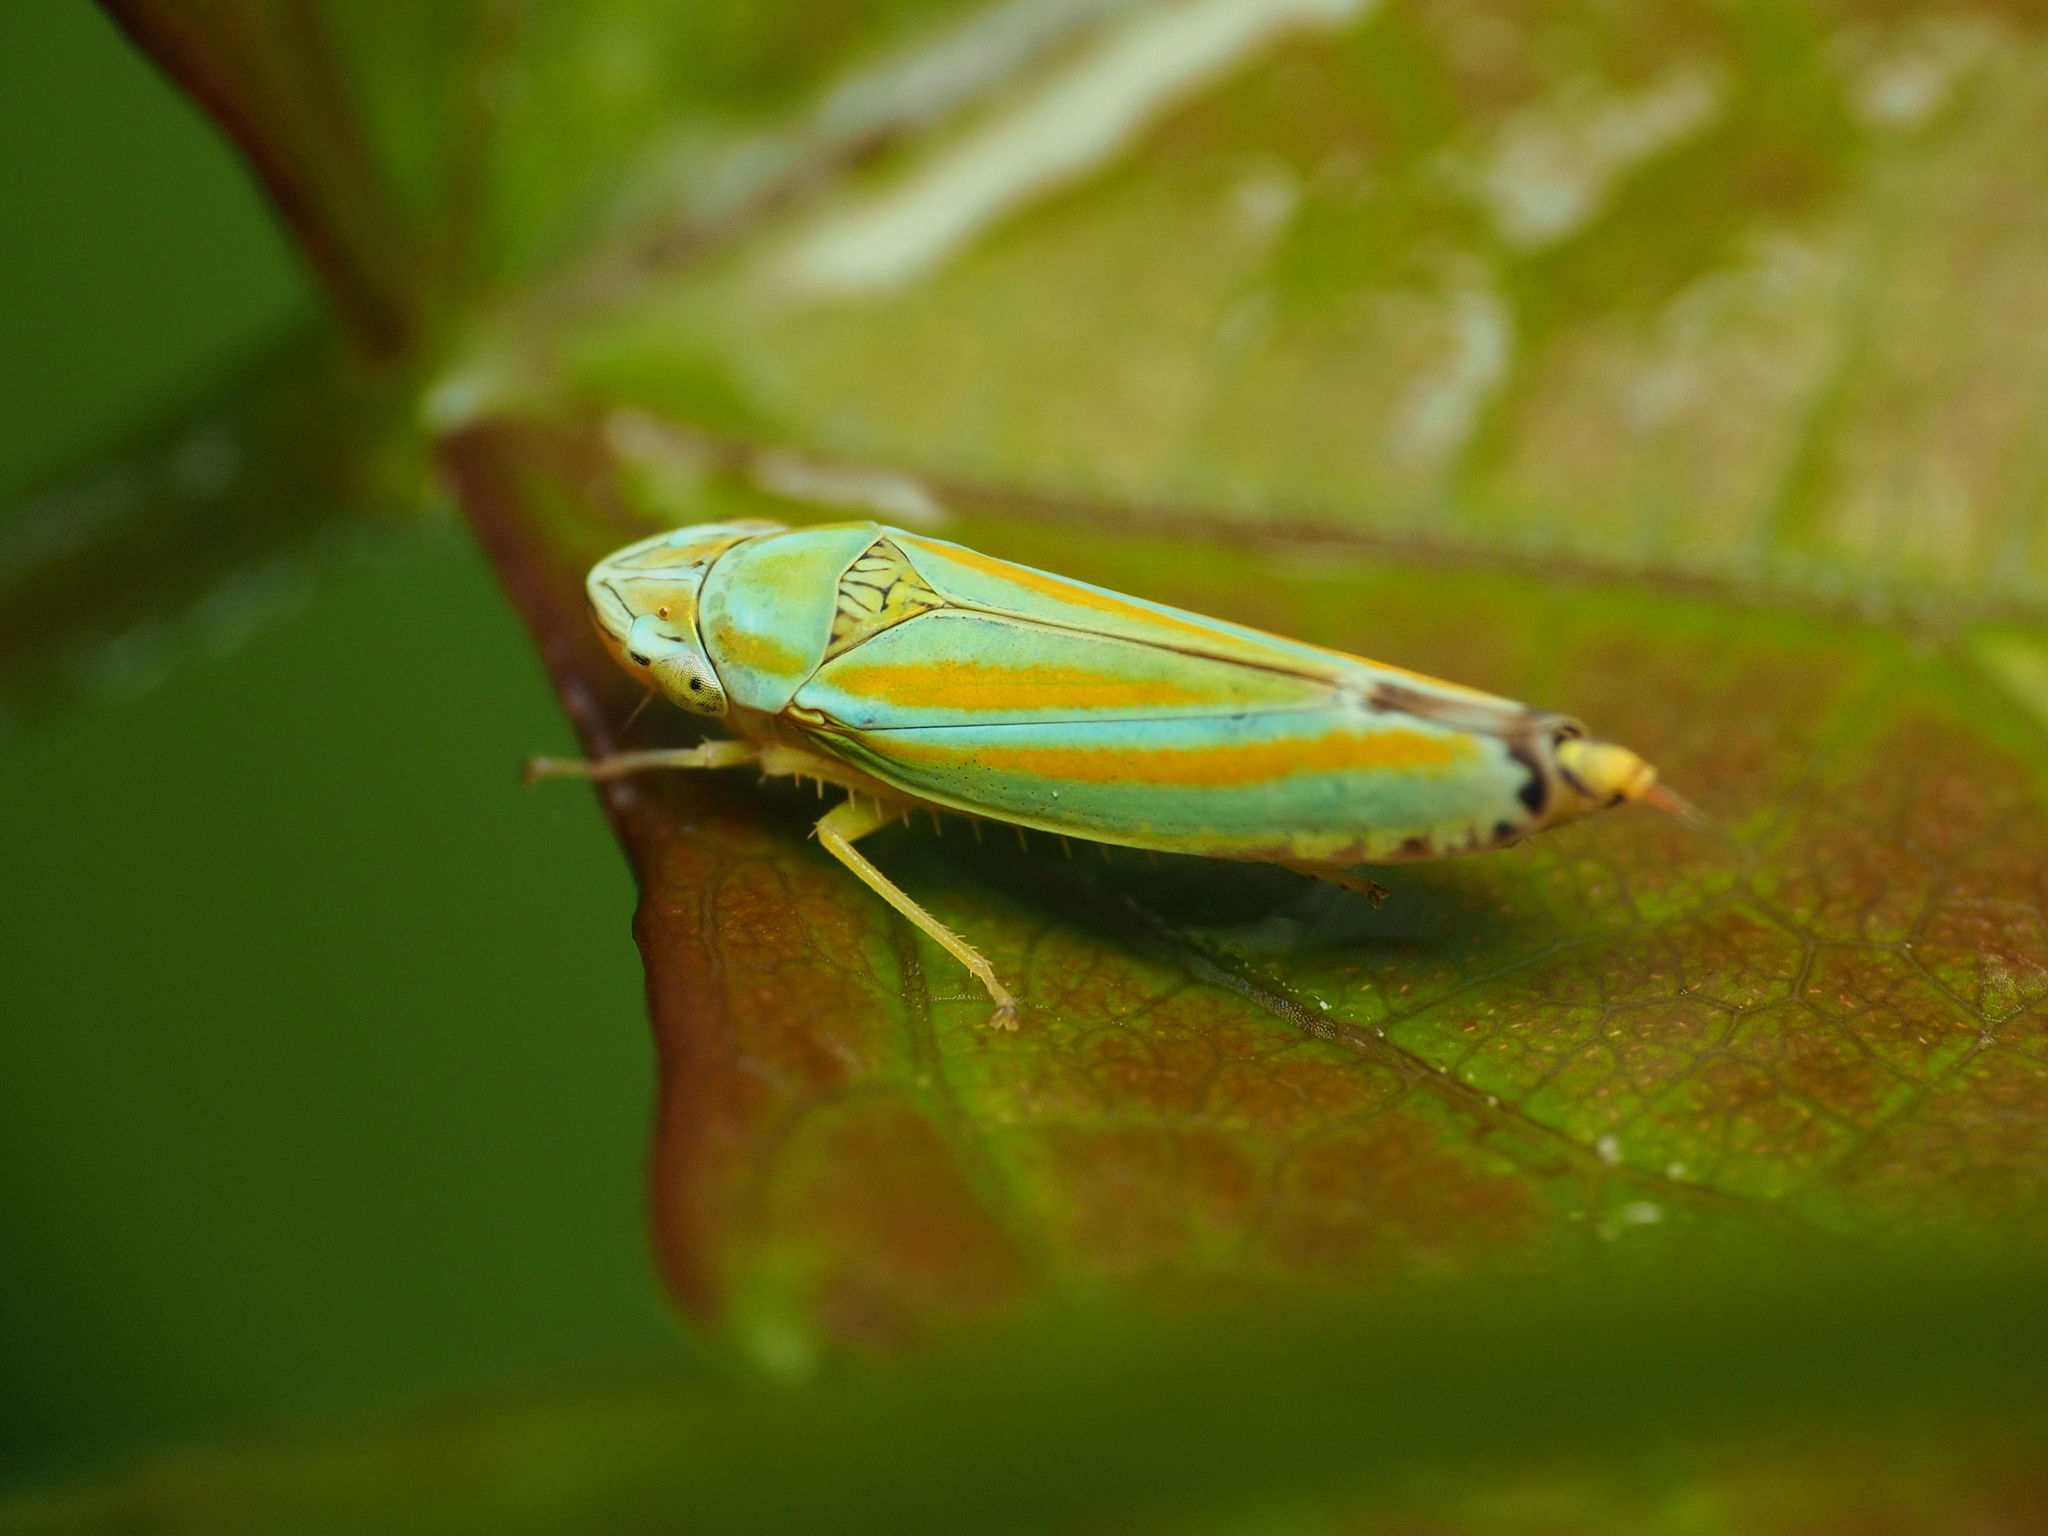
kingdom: Animalia
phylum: Arthropoda
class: Insecta
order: Hemiptera
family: Cicadellidae
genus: Graphocephala
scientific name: Graphocephala versuta
